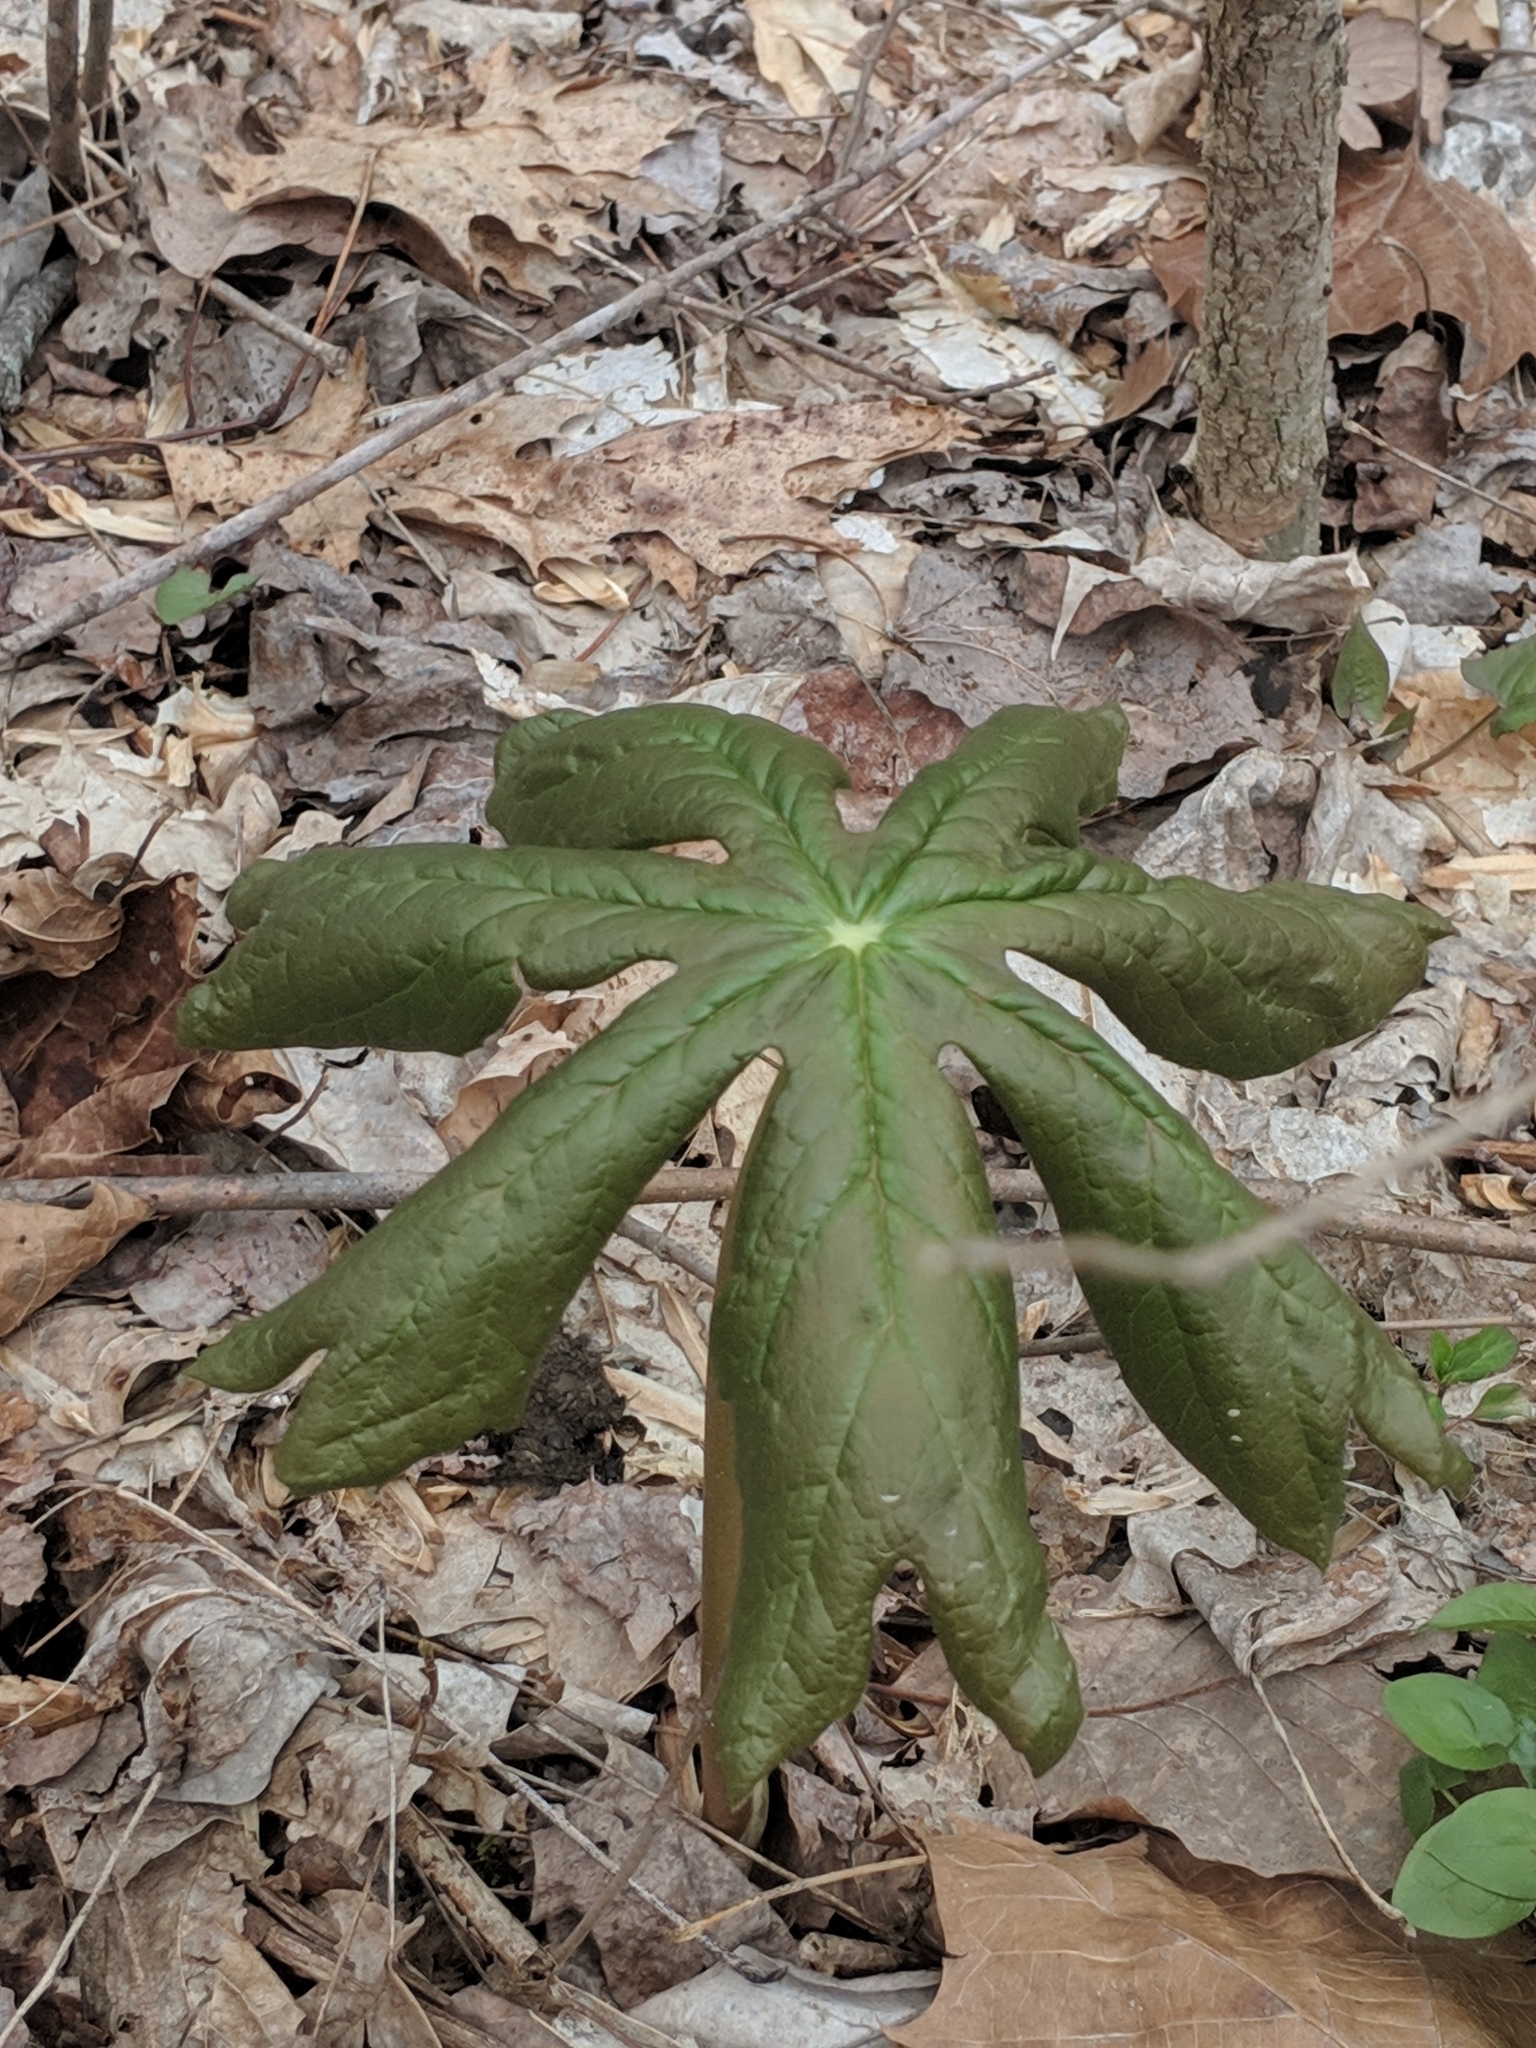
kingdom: Plantae
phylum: Tracheophyta
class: Magnoliopsida
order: Ranunculales
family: Berberidaceae
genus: Podophyllum
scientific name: Podophyllum peltatum
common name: Wild mandrake
